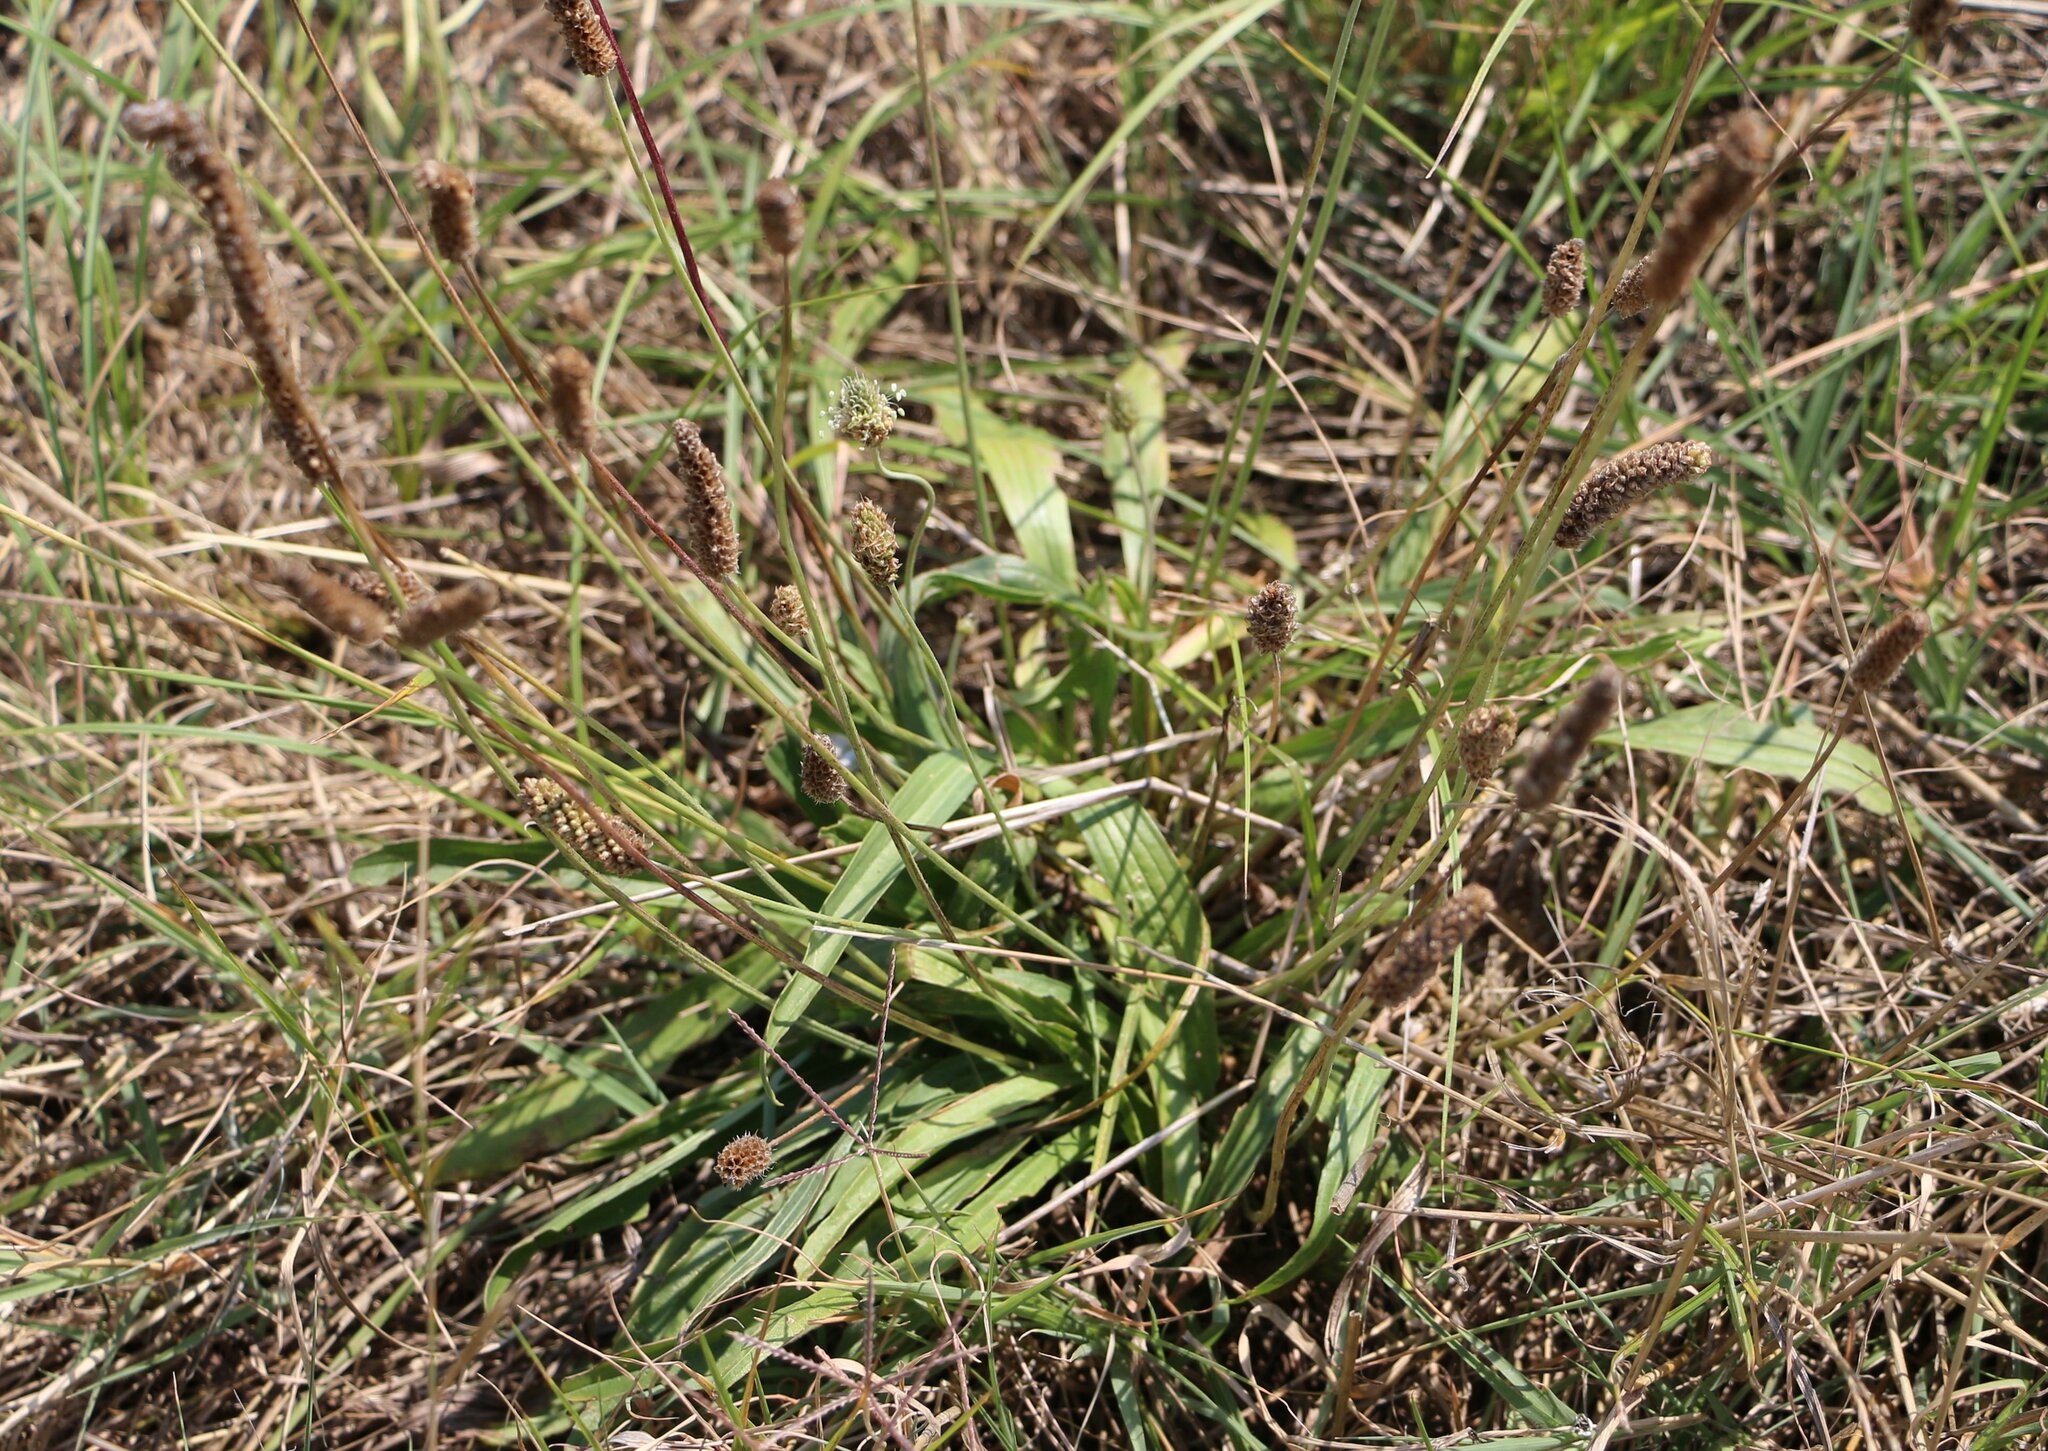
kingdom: Plantae
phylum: Tracheophyta
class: Magnoliopsida
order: Lamiales
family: Plantaginaceae
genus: Plantago
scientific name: Plantago lanceolata
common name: Ribwort plantain
